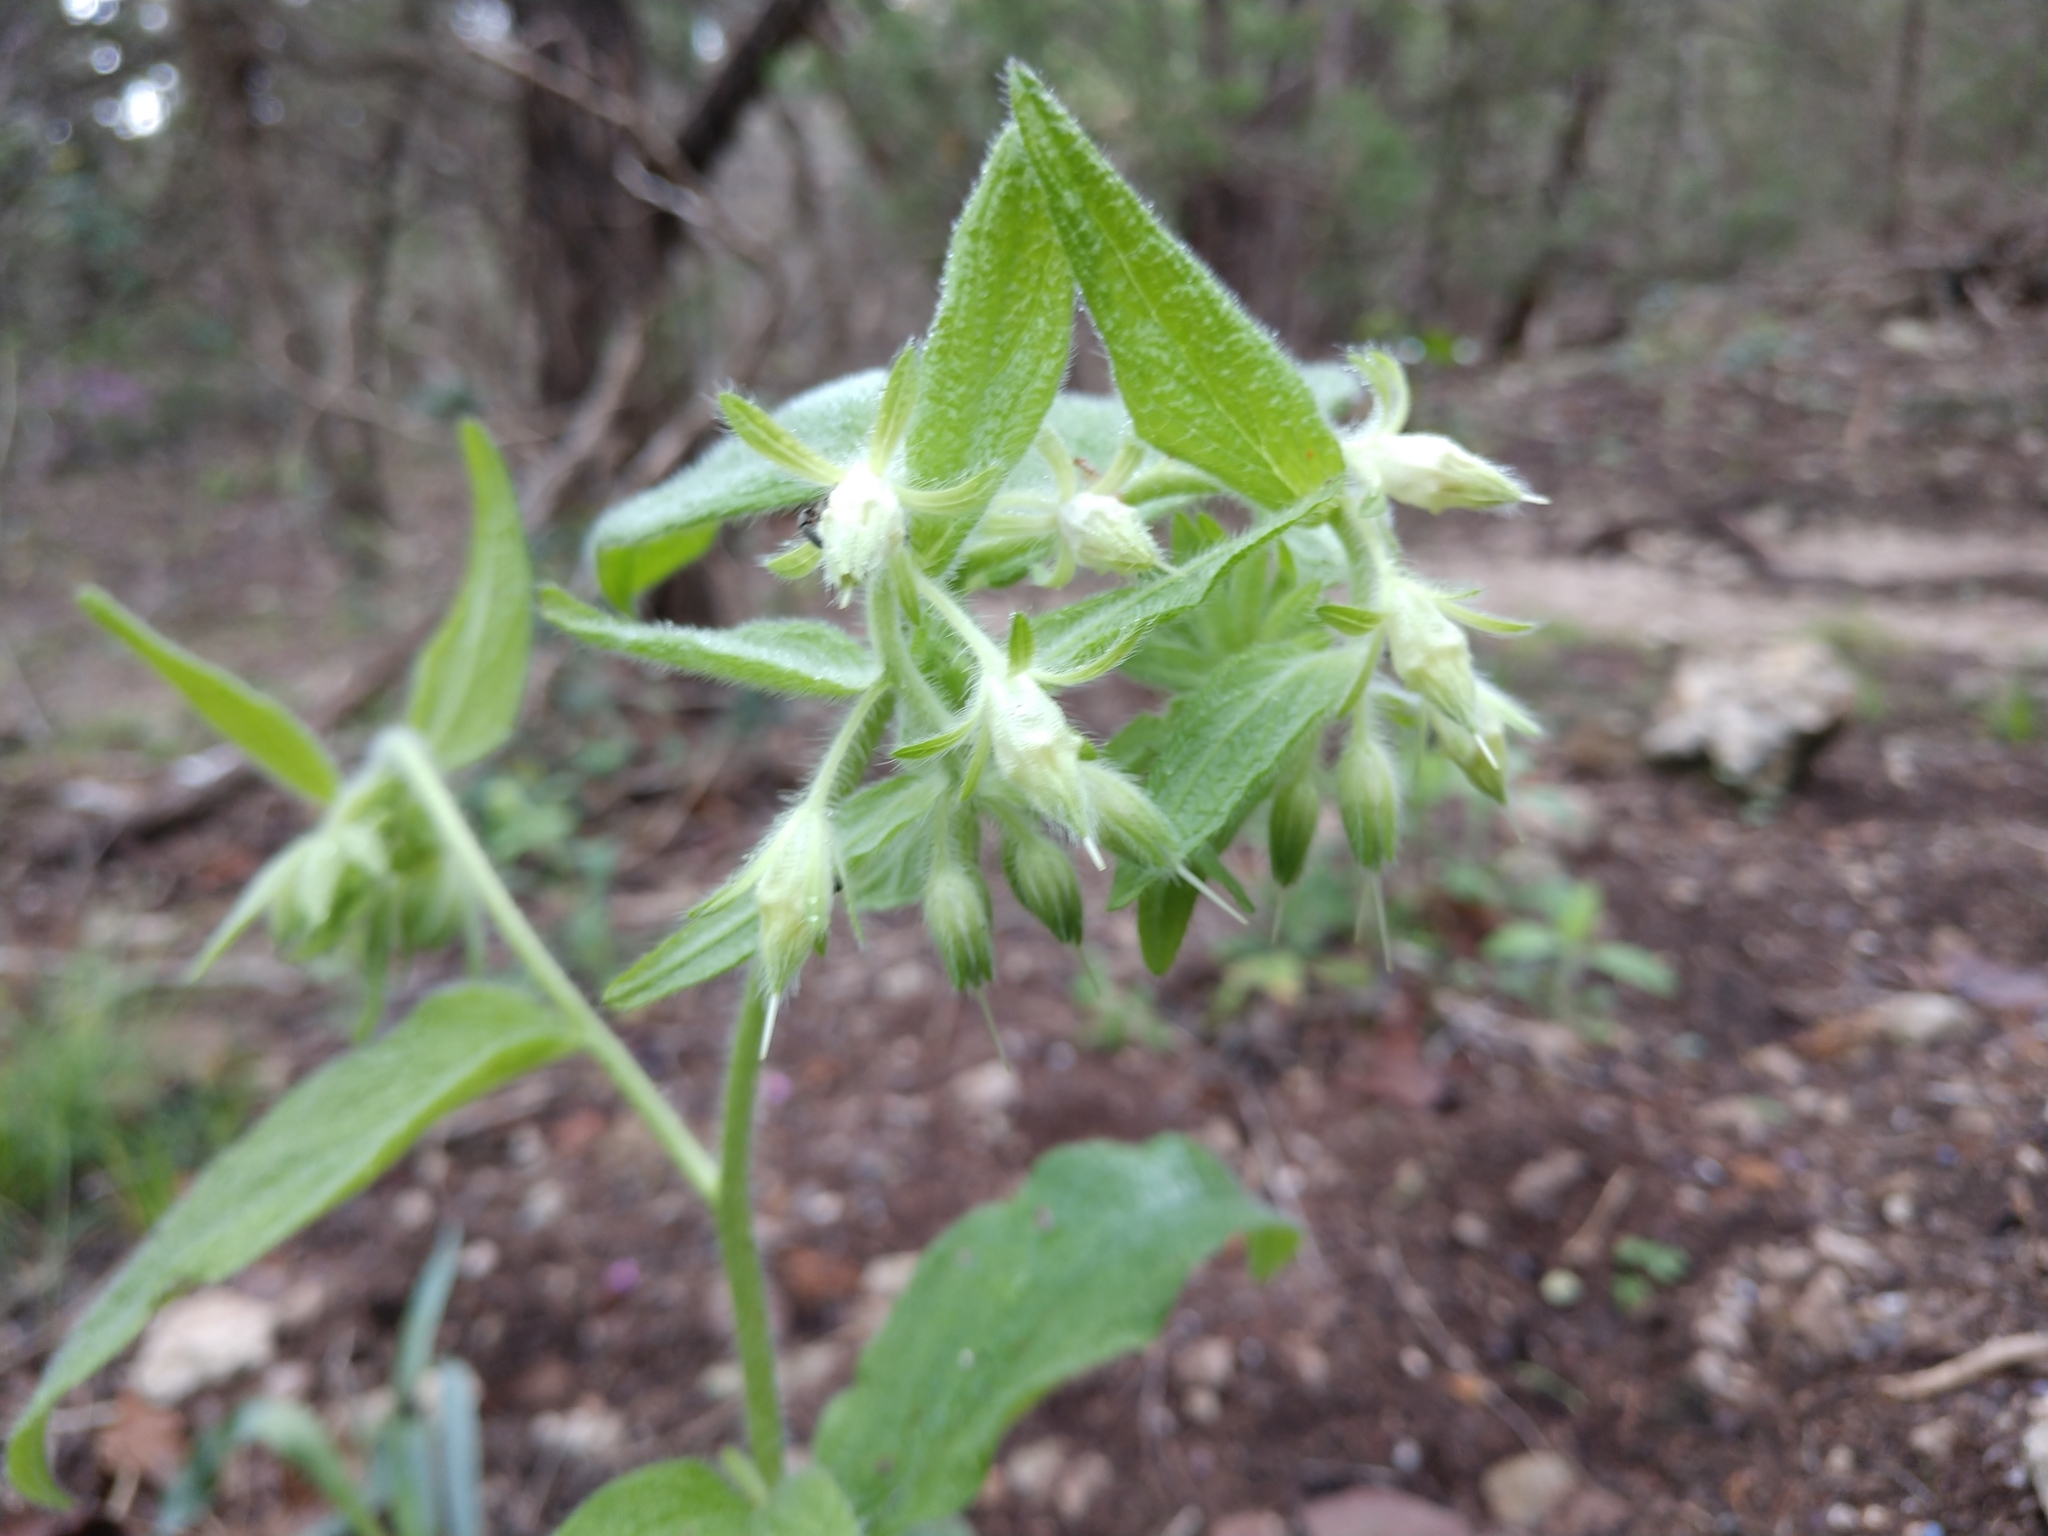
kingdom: Plantae
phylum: Tracheophyta
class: Magnoliopsida
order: Boraginales
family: Boraginaceae
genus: Lithospermum
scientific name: Lithospermum helleri
